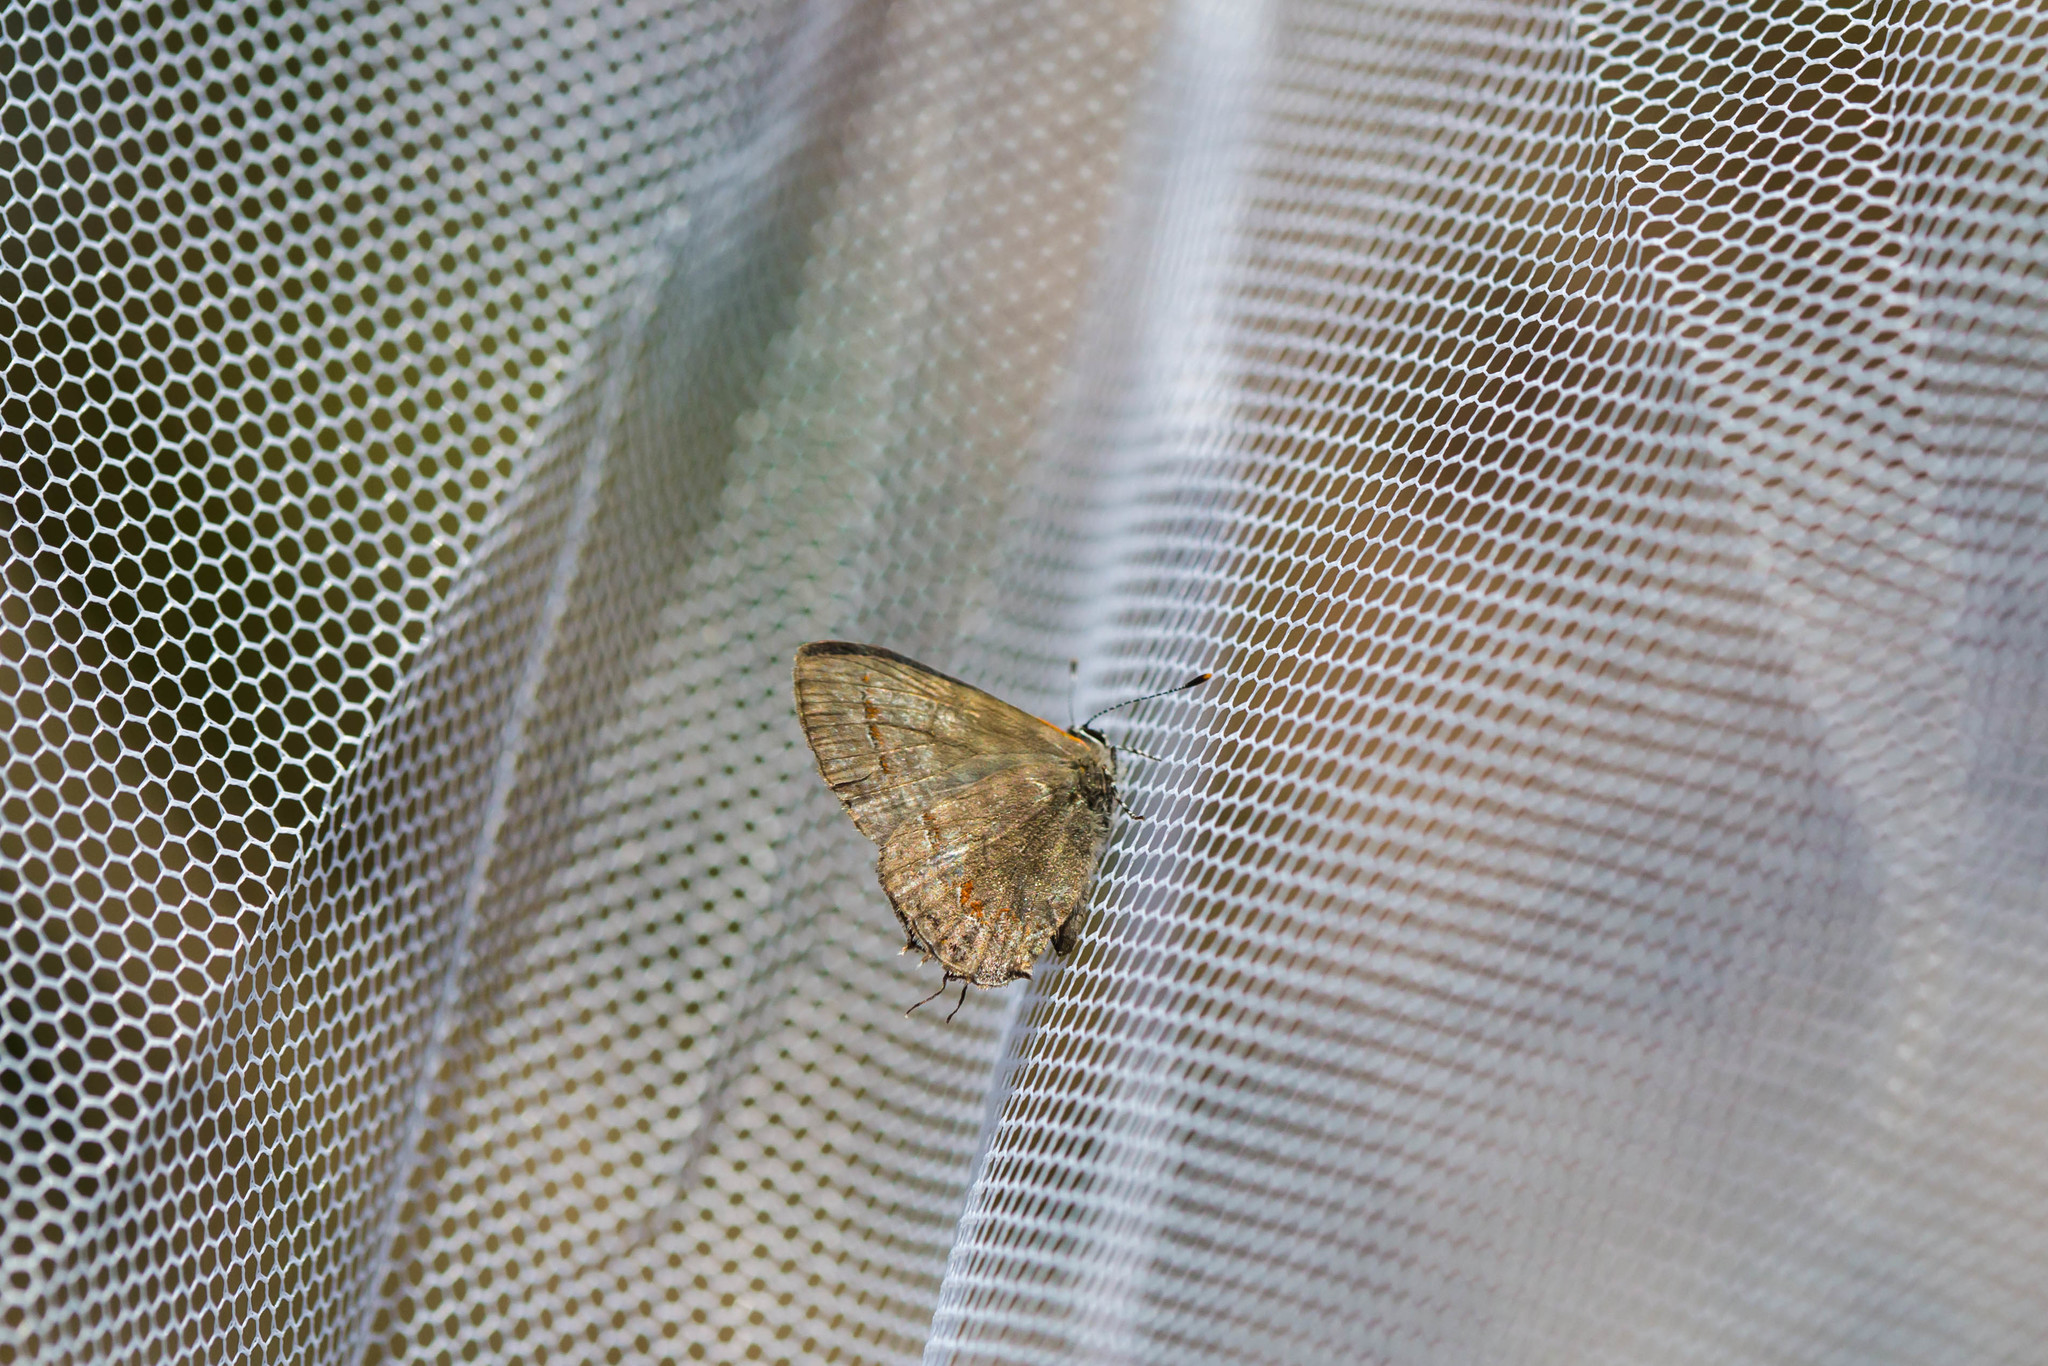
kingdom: Animalia
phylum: Arthropoda
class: Insecta
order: Lepidoptera
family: Lycaenidae
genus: Calycopis
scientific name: Calycopis cecrops
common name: Red-banded hairstreak
